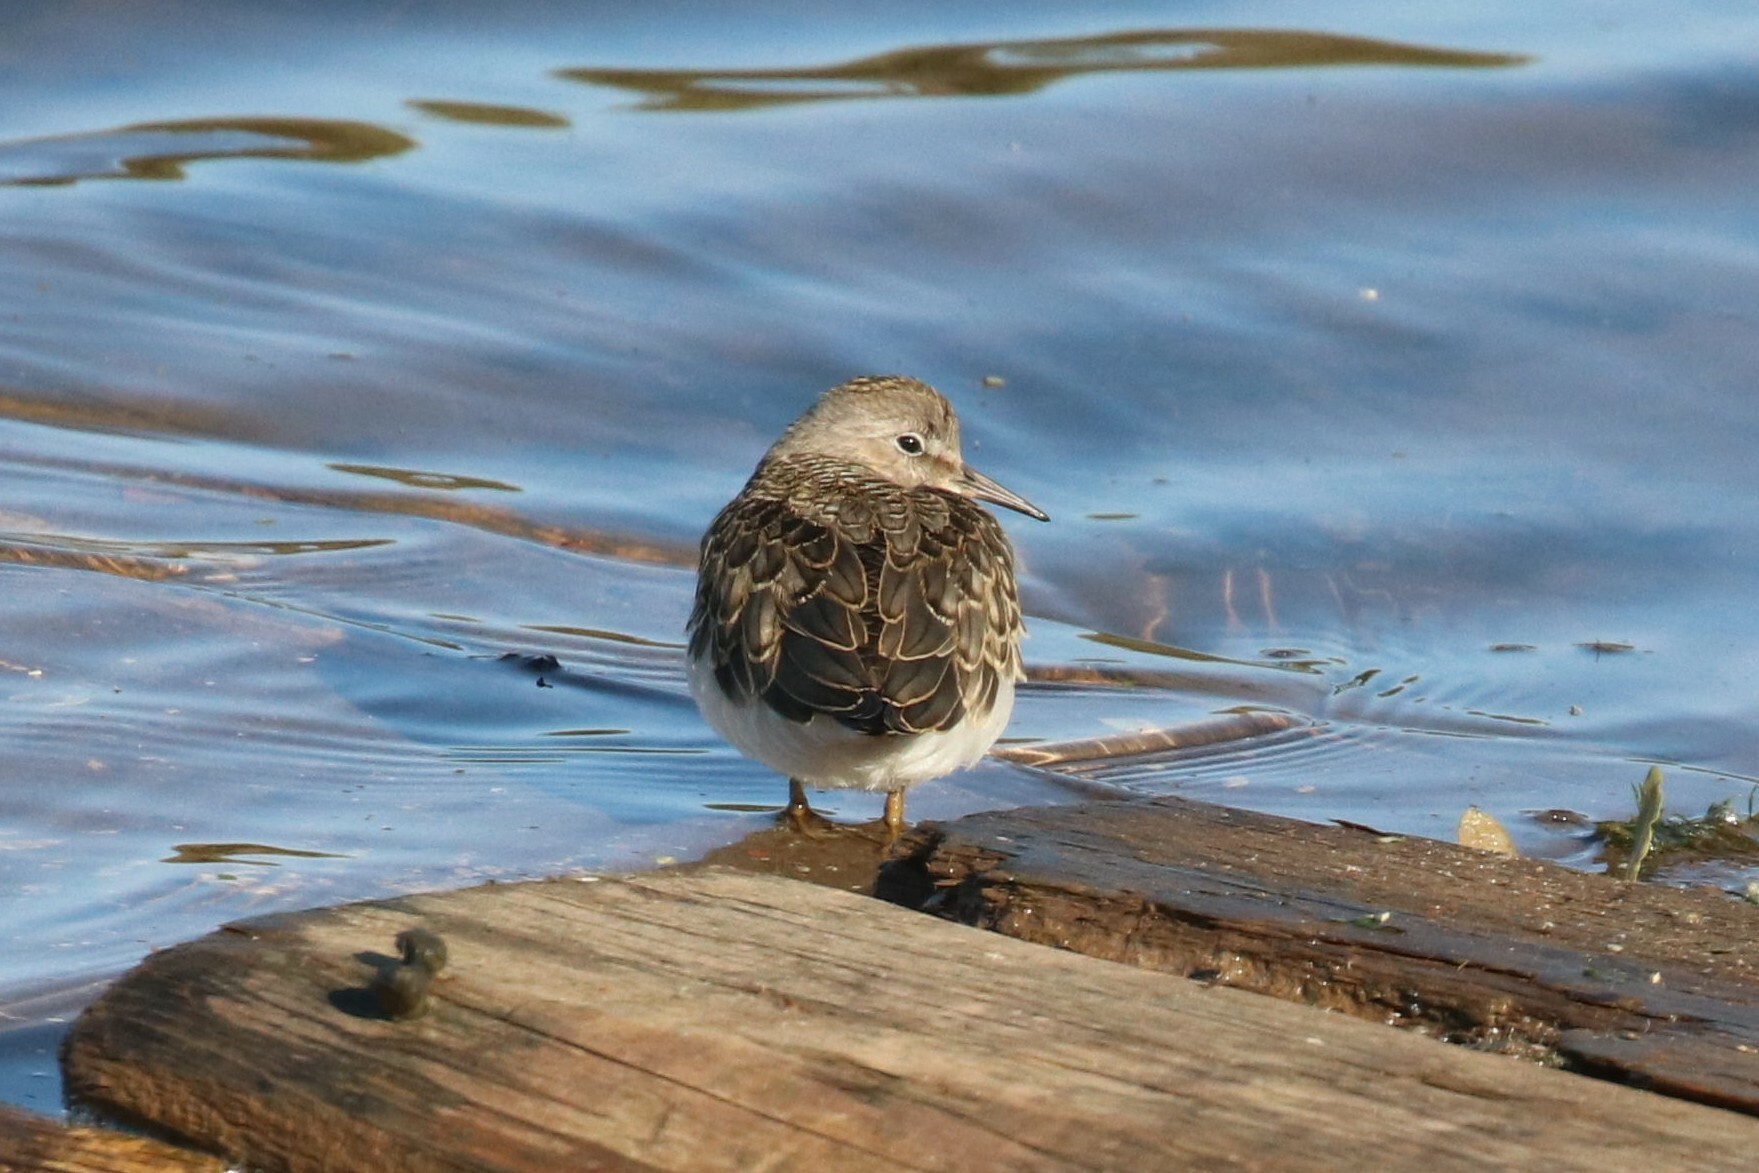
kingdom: Animalia
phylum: Chordata
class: Aves
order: Charadriiformes
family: Scolopacidae
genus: Calidris
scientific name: Calidris temminckii
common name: Temminck's stint
